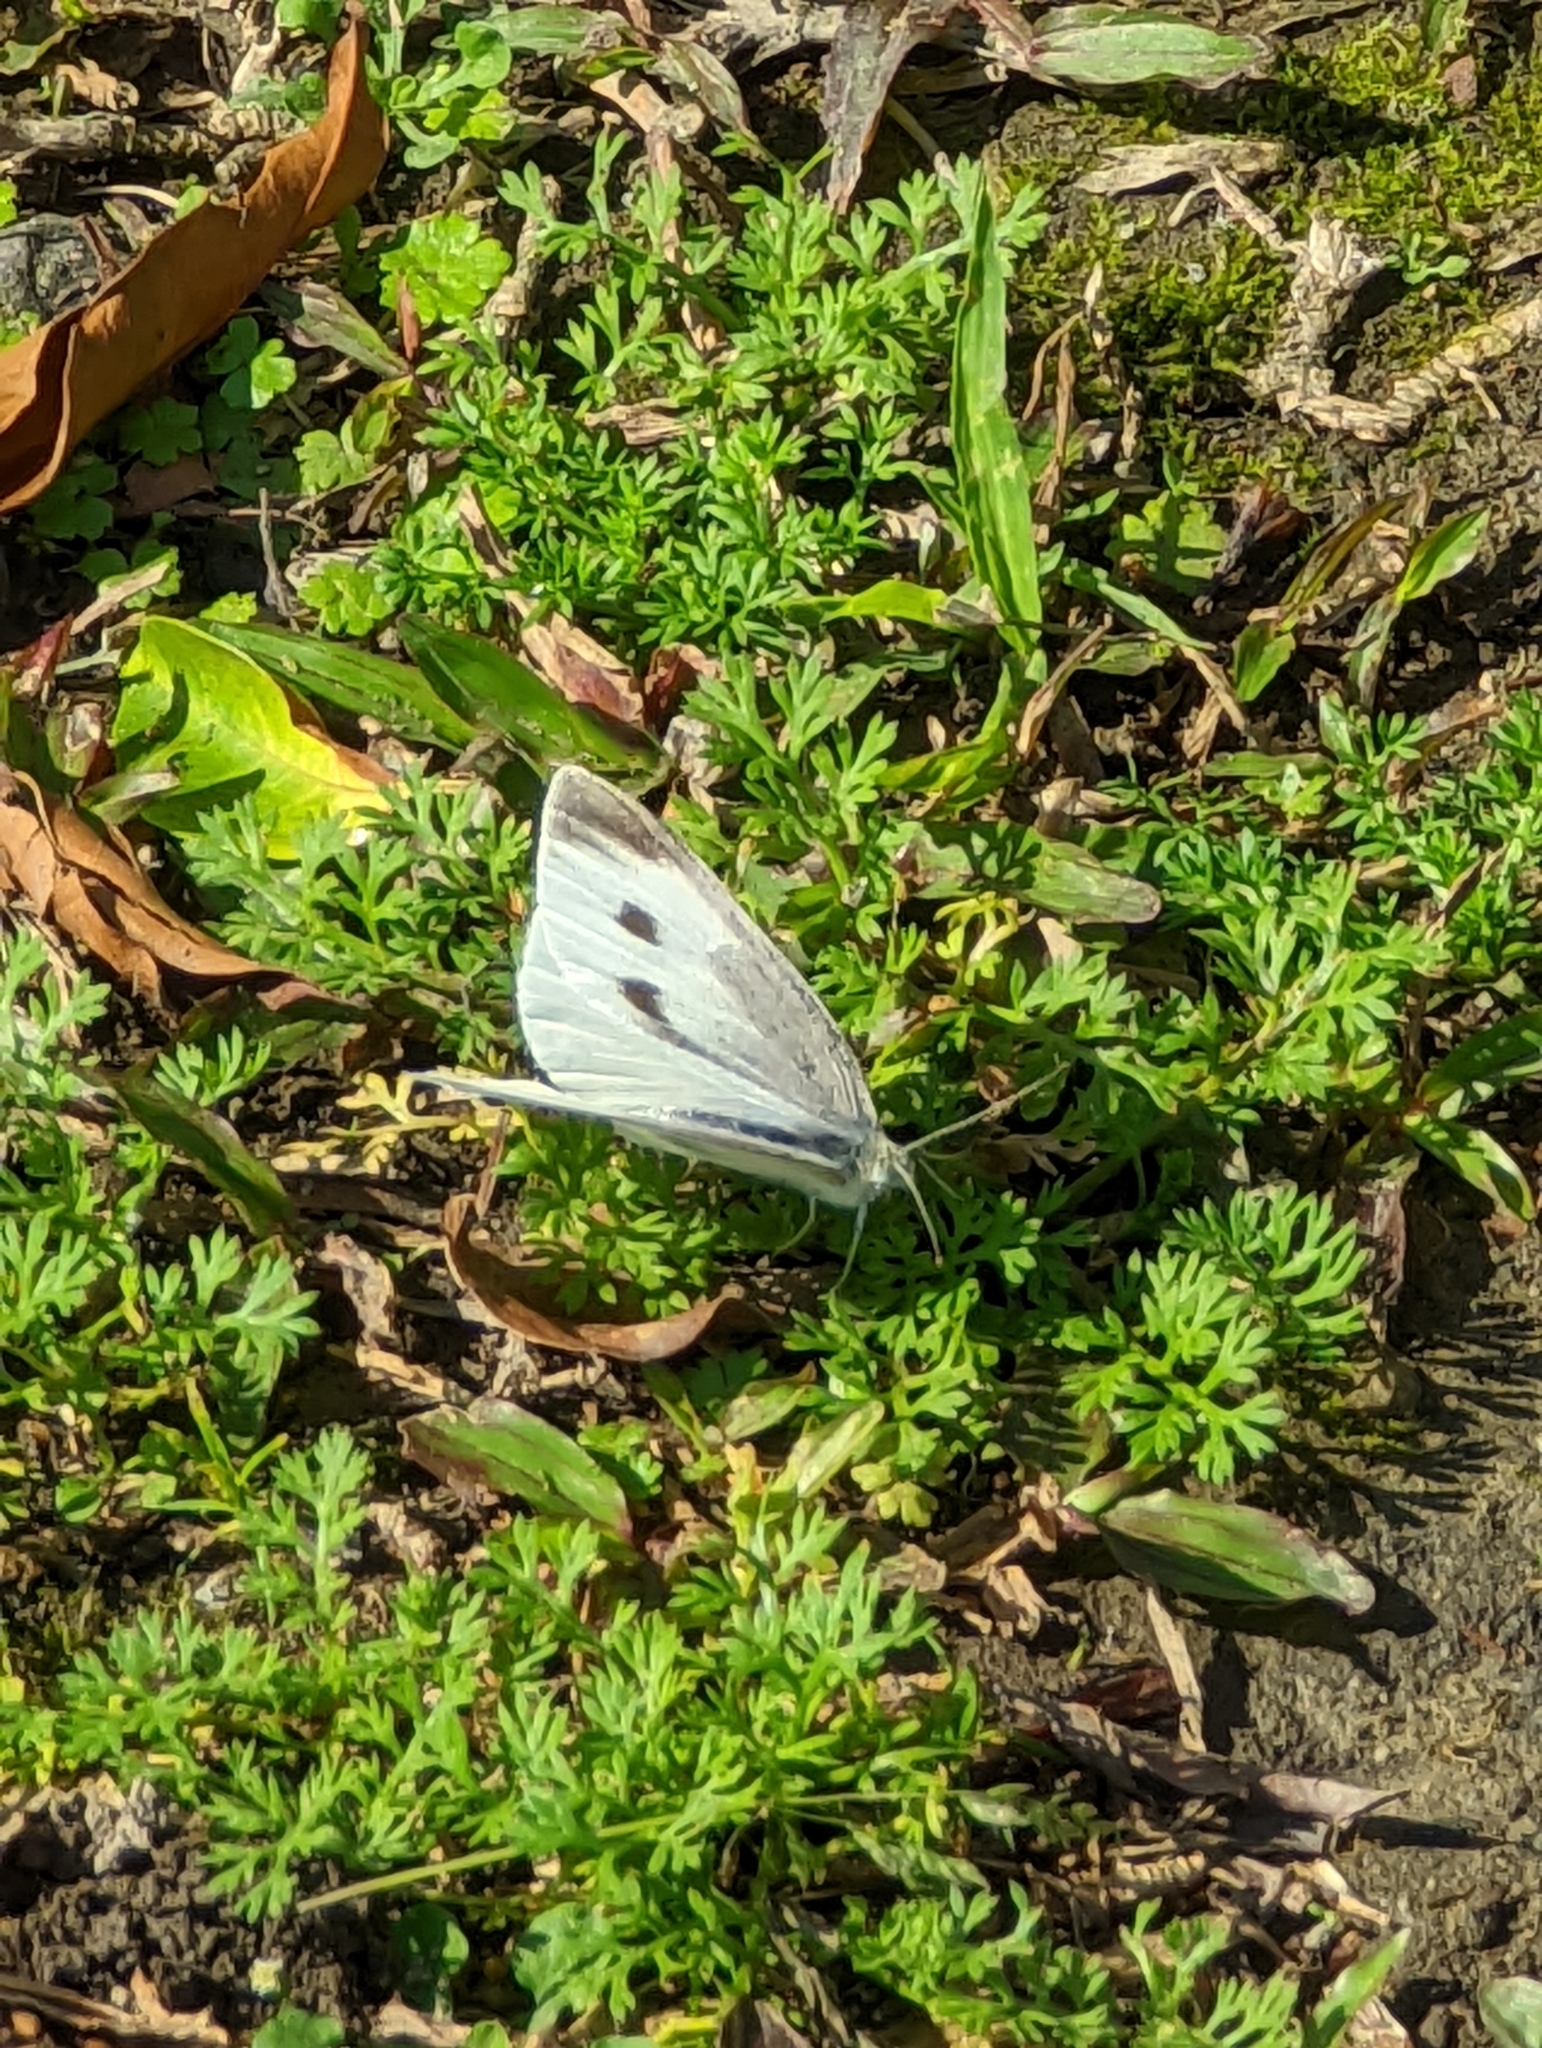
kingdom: Animalia
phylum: Arthropoda
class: Insecta
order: Lepidoptera
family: Pieridae
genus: Pieris
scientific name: Pieris rapae
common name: Small white
